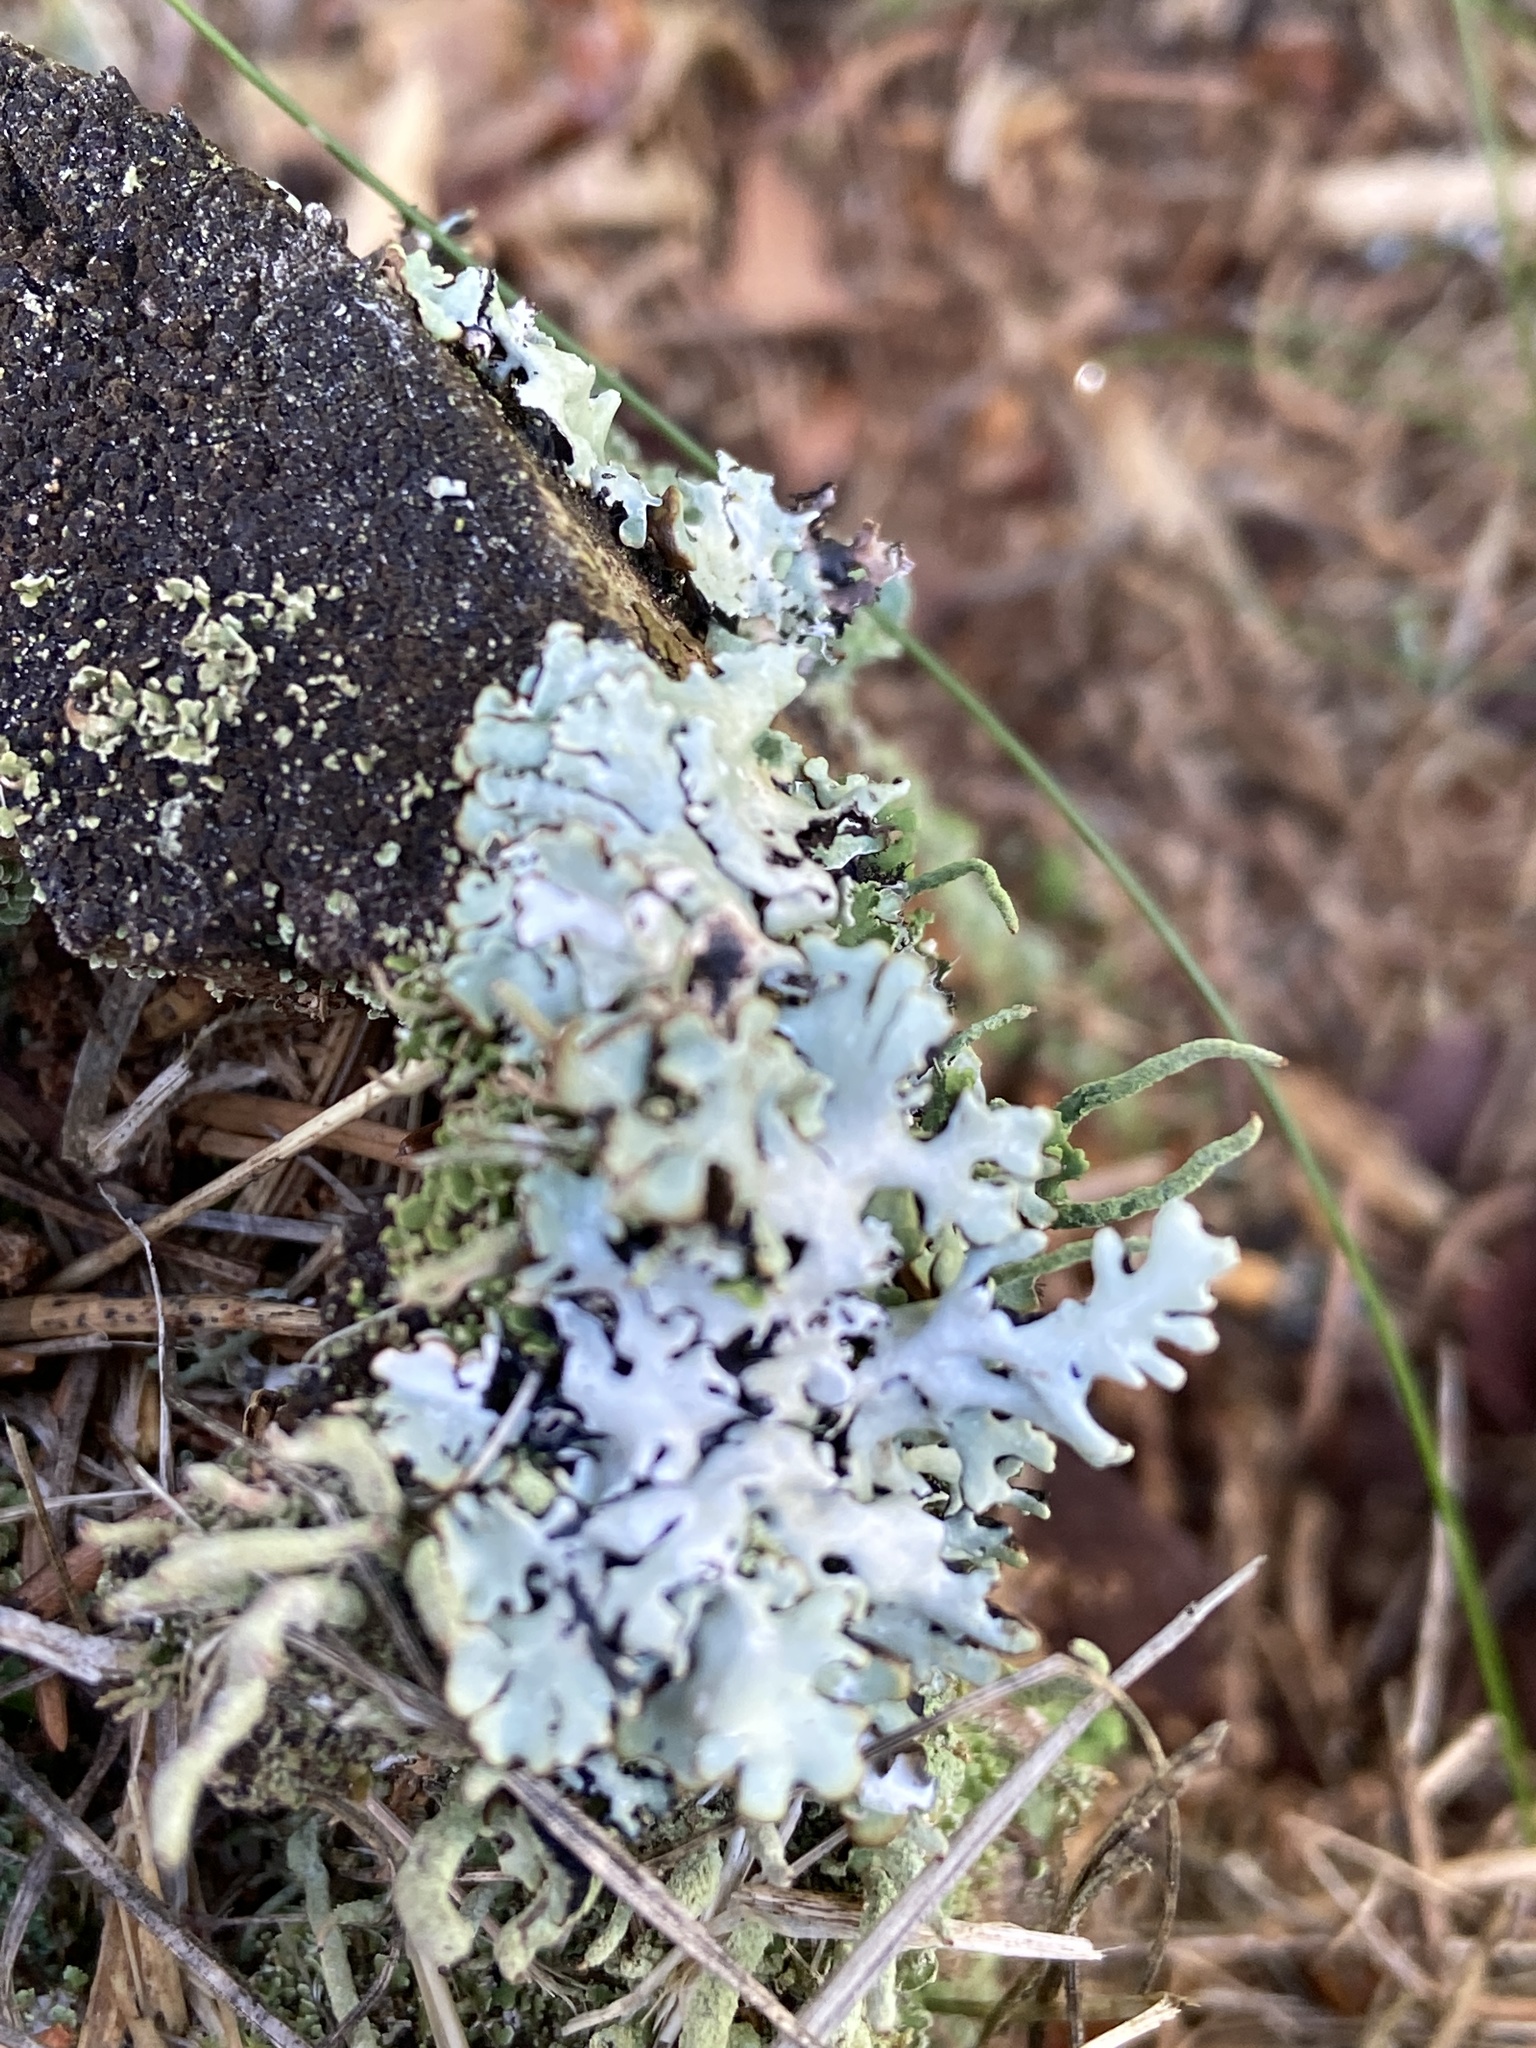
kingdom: Fungi
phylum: Ascomycota
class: Lecanoromycetes
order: Lecanorales
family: Parmeliaceae
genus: Hypogymnia
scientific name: Hypogymnia physodes
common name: Dark crottle
